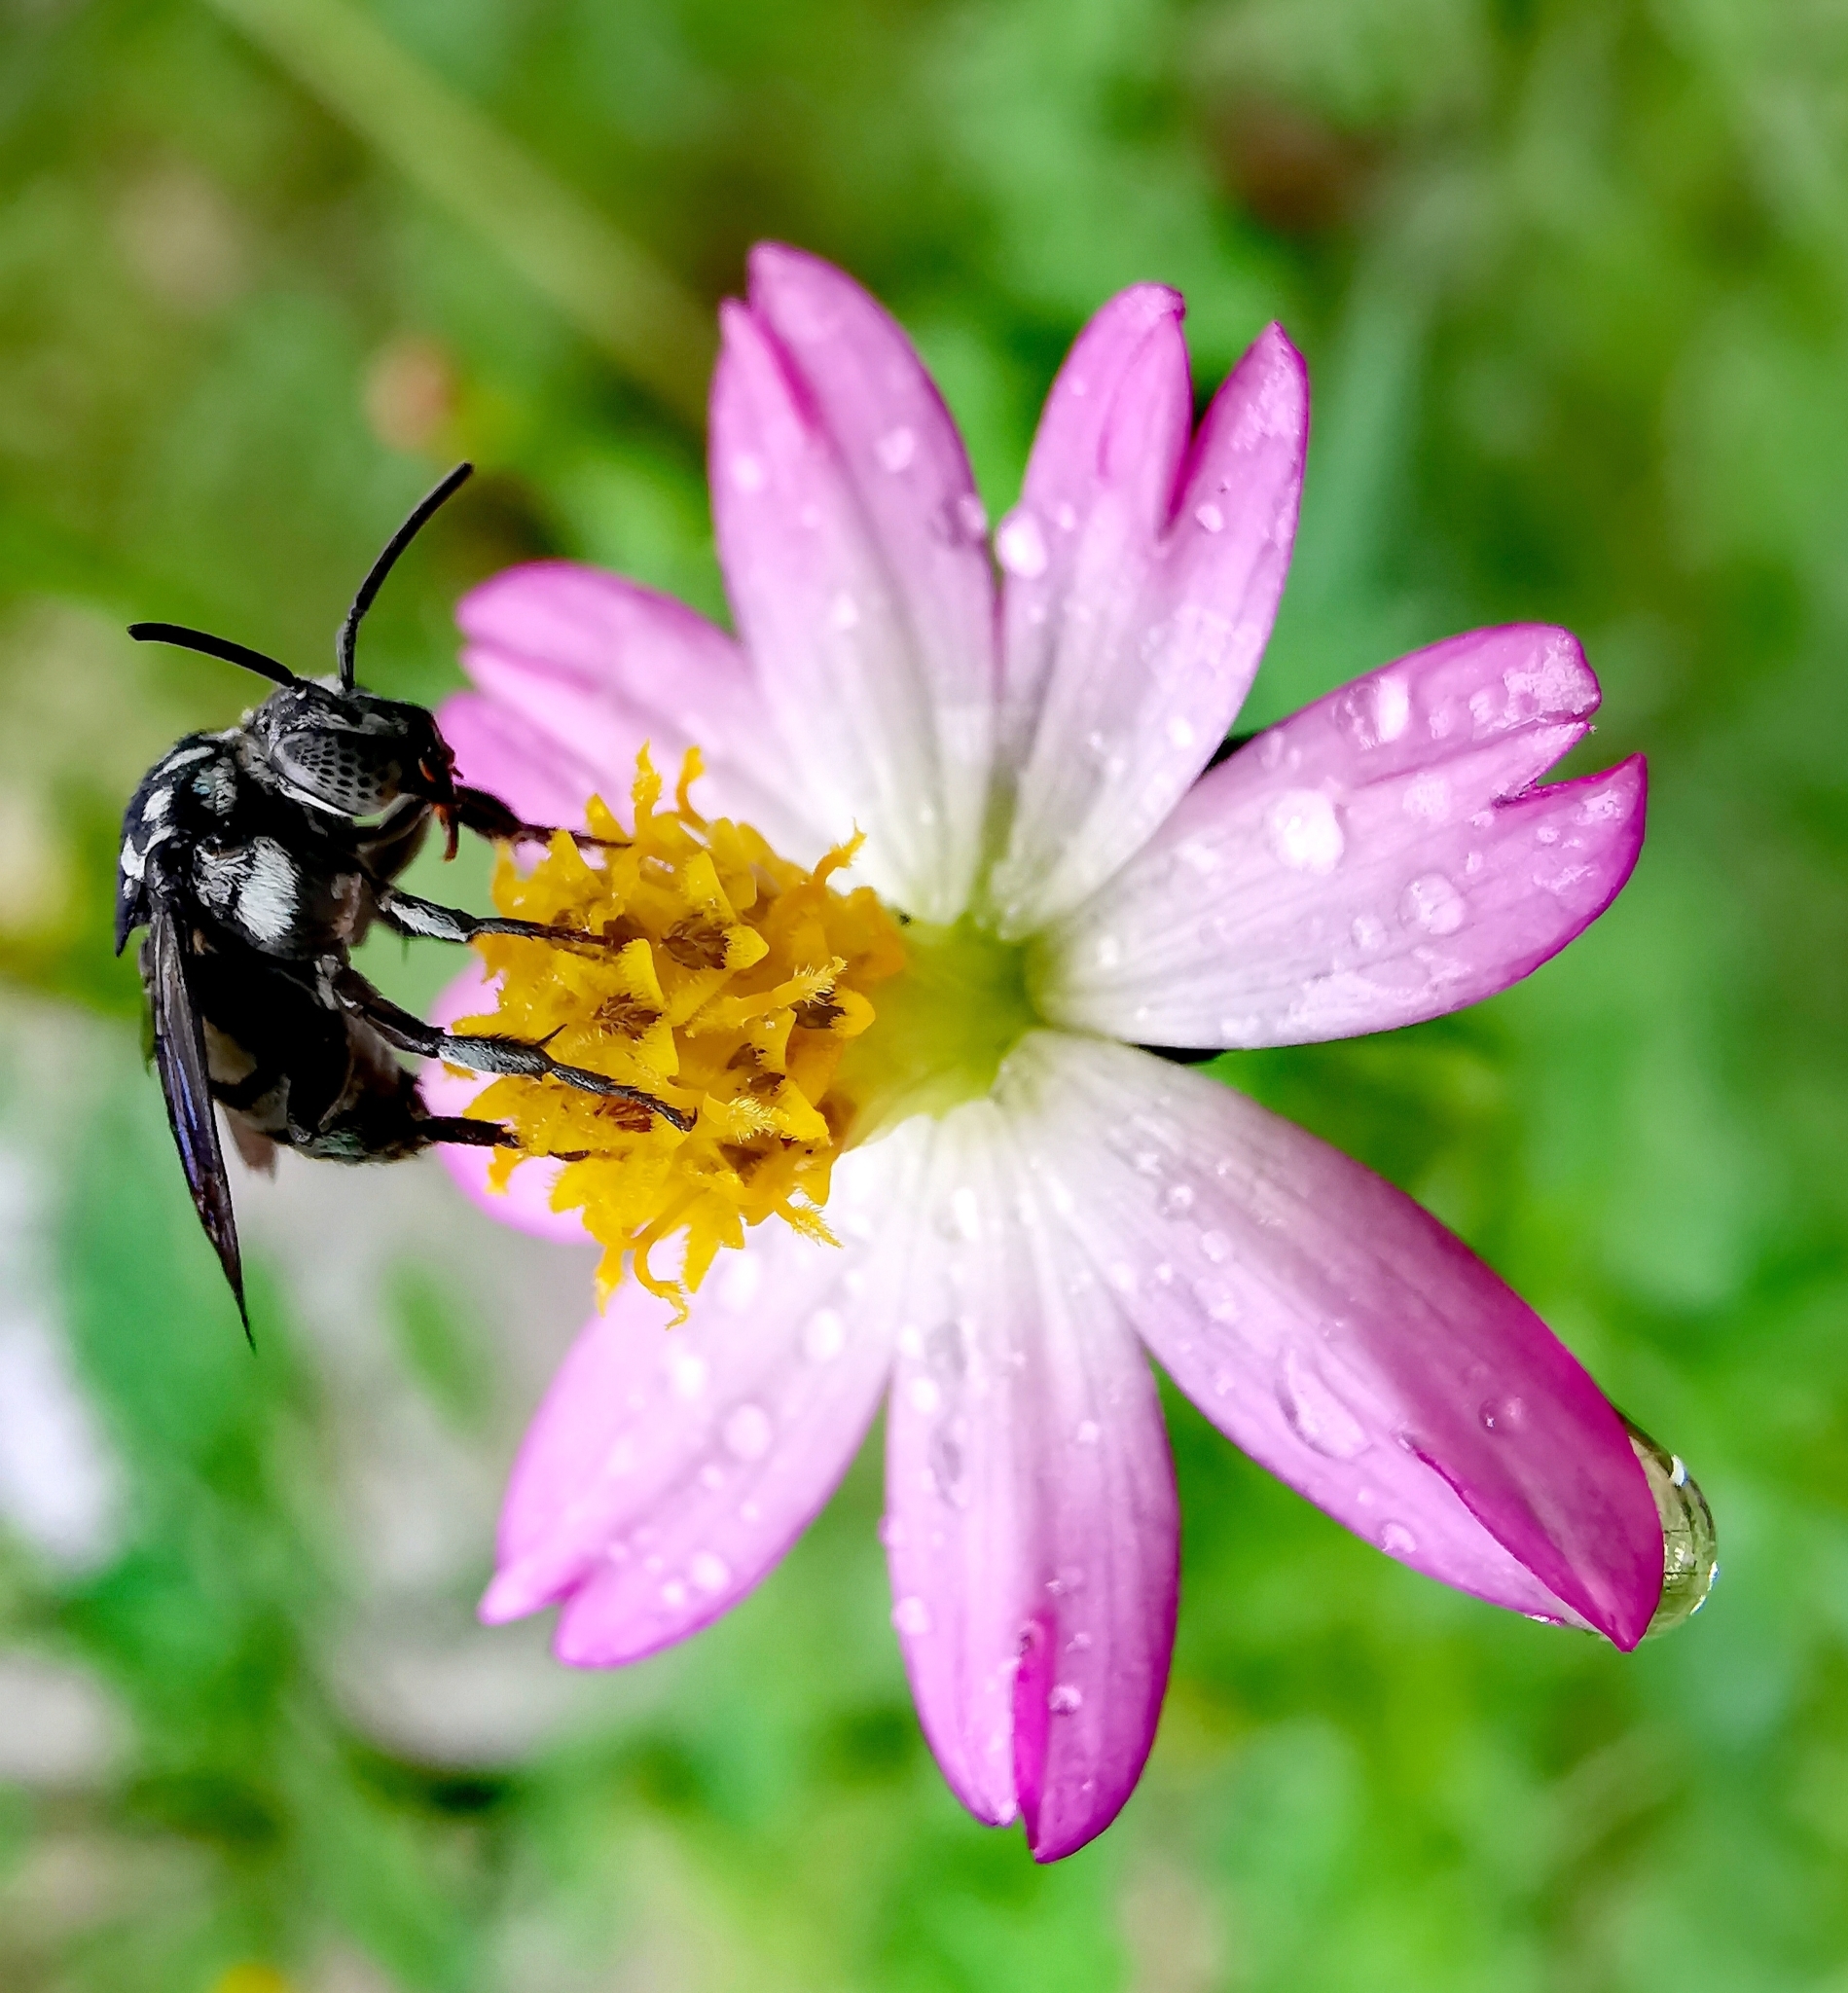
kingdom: Animalia
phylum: Arthropoda
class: Insecta
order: Hymenoptera
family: Apidae
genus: Thyreus
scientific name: Thyreus
